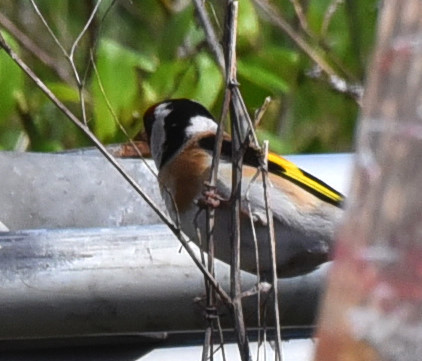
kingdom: Animalia
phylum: Chordata
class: Aves
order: Passeriformes
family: Fringillidae
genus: Carduelis
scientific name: Carduelis carduelis
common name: European goldfinch
